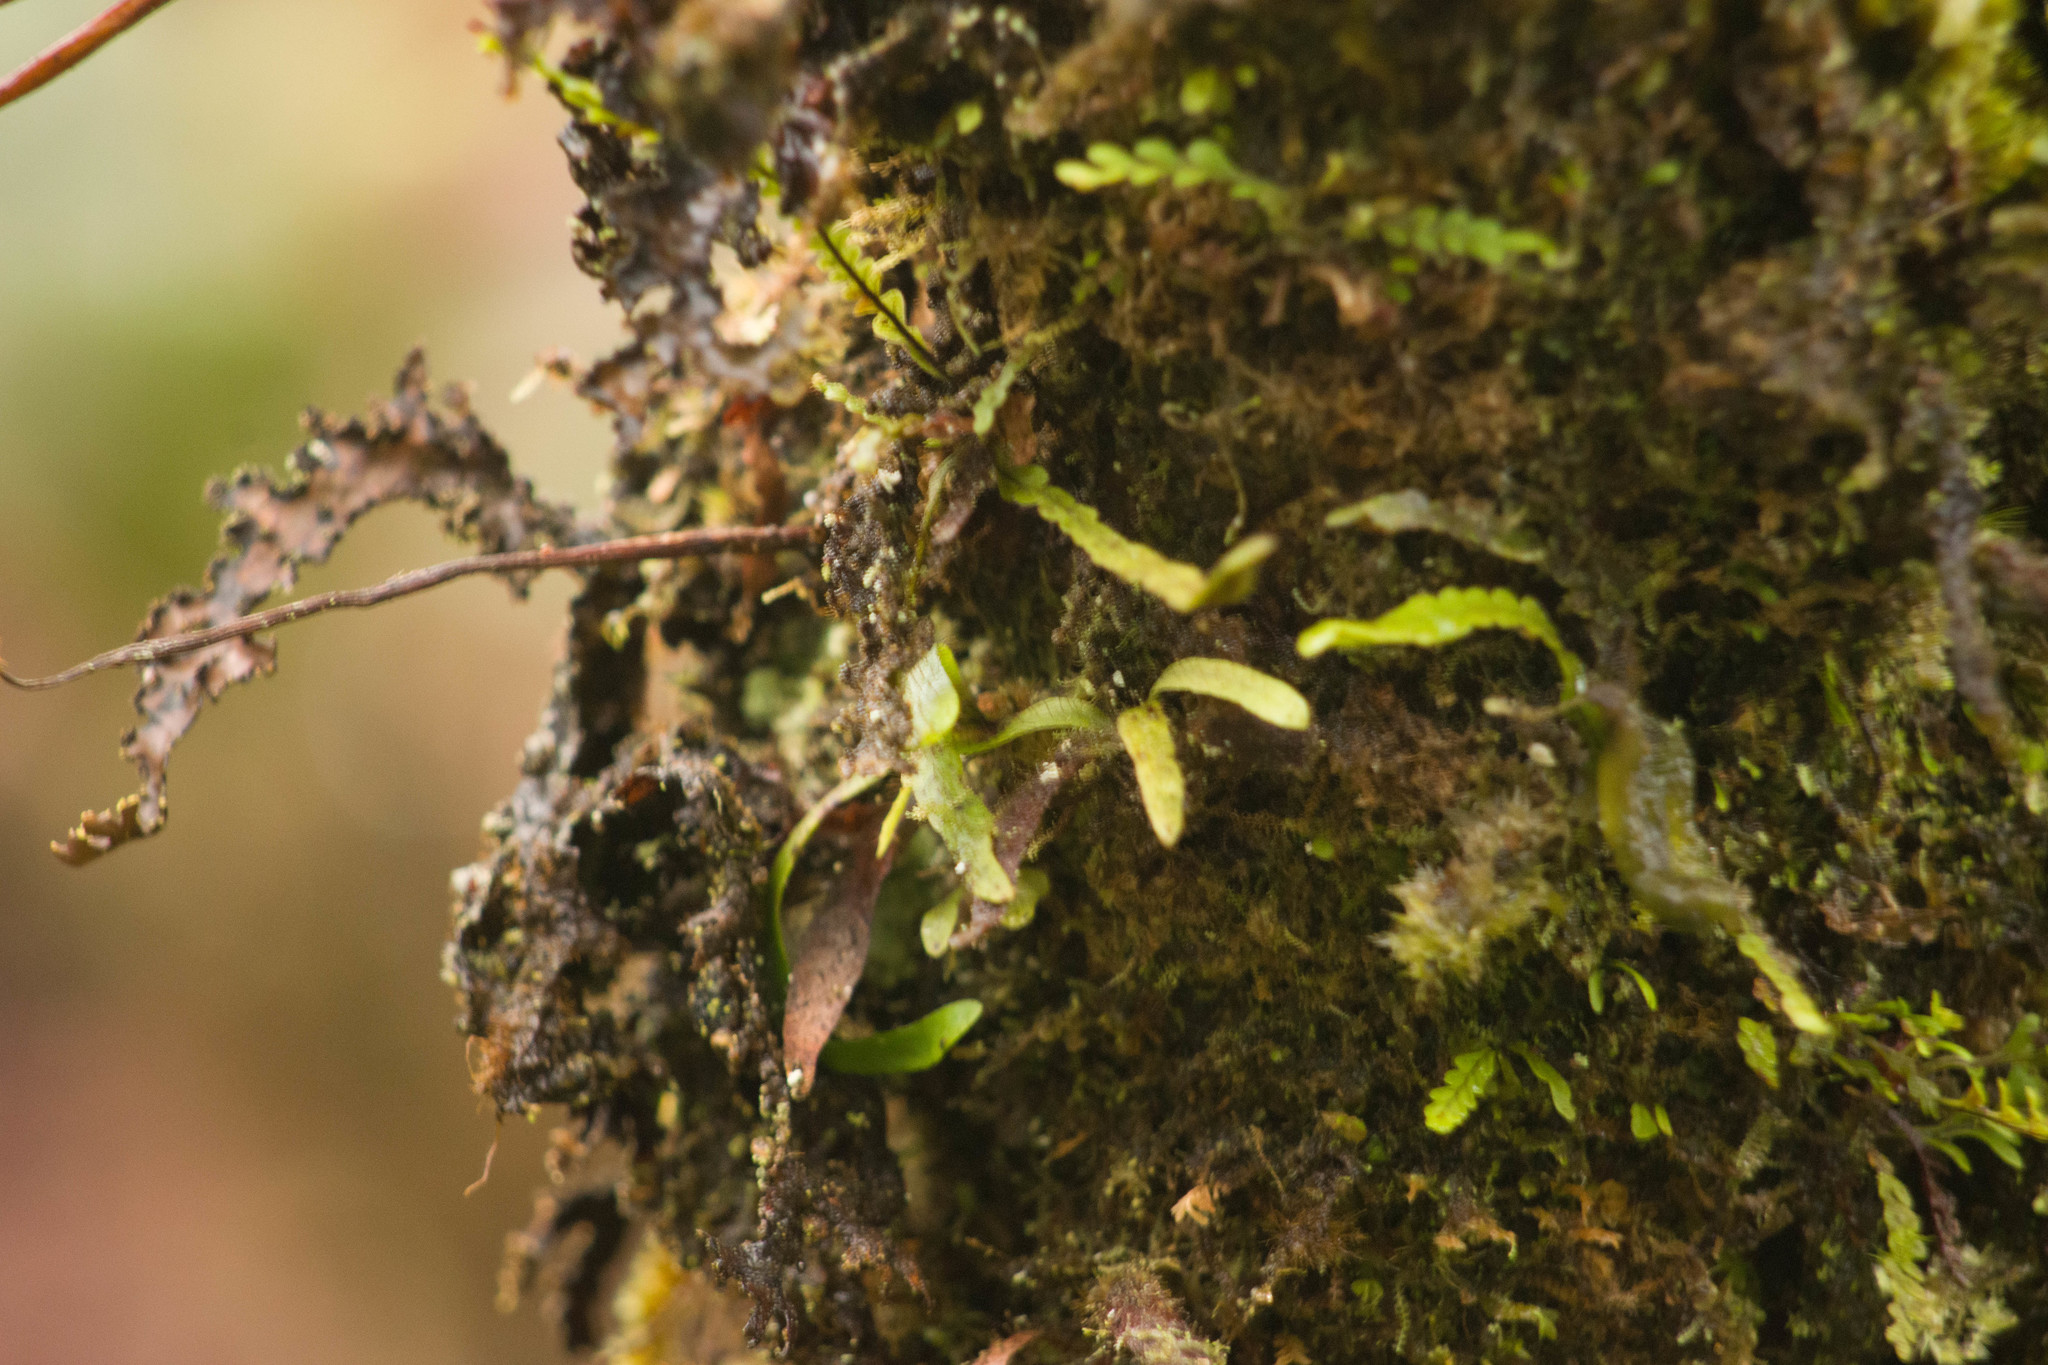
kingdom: Plantae
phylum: Tracheophyta
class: Polypodiopsida
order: Polypodiales
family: Polypodiaceae
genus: Adenophorus
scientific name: Adenophorus tenellus
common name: Kolokolo
